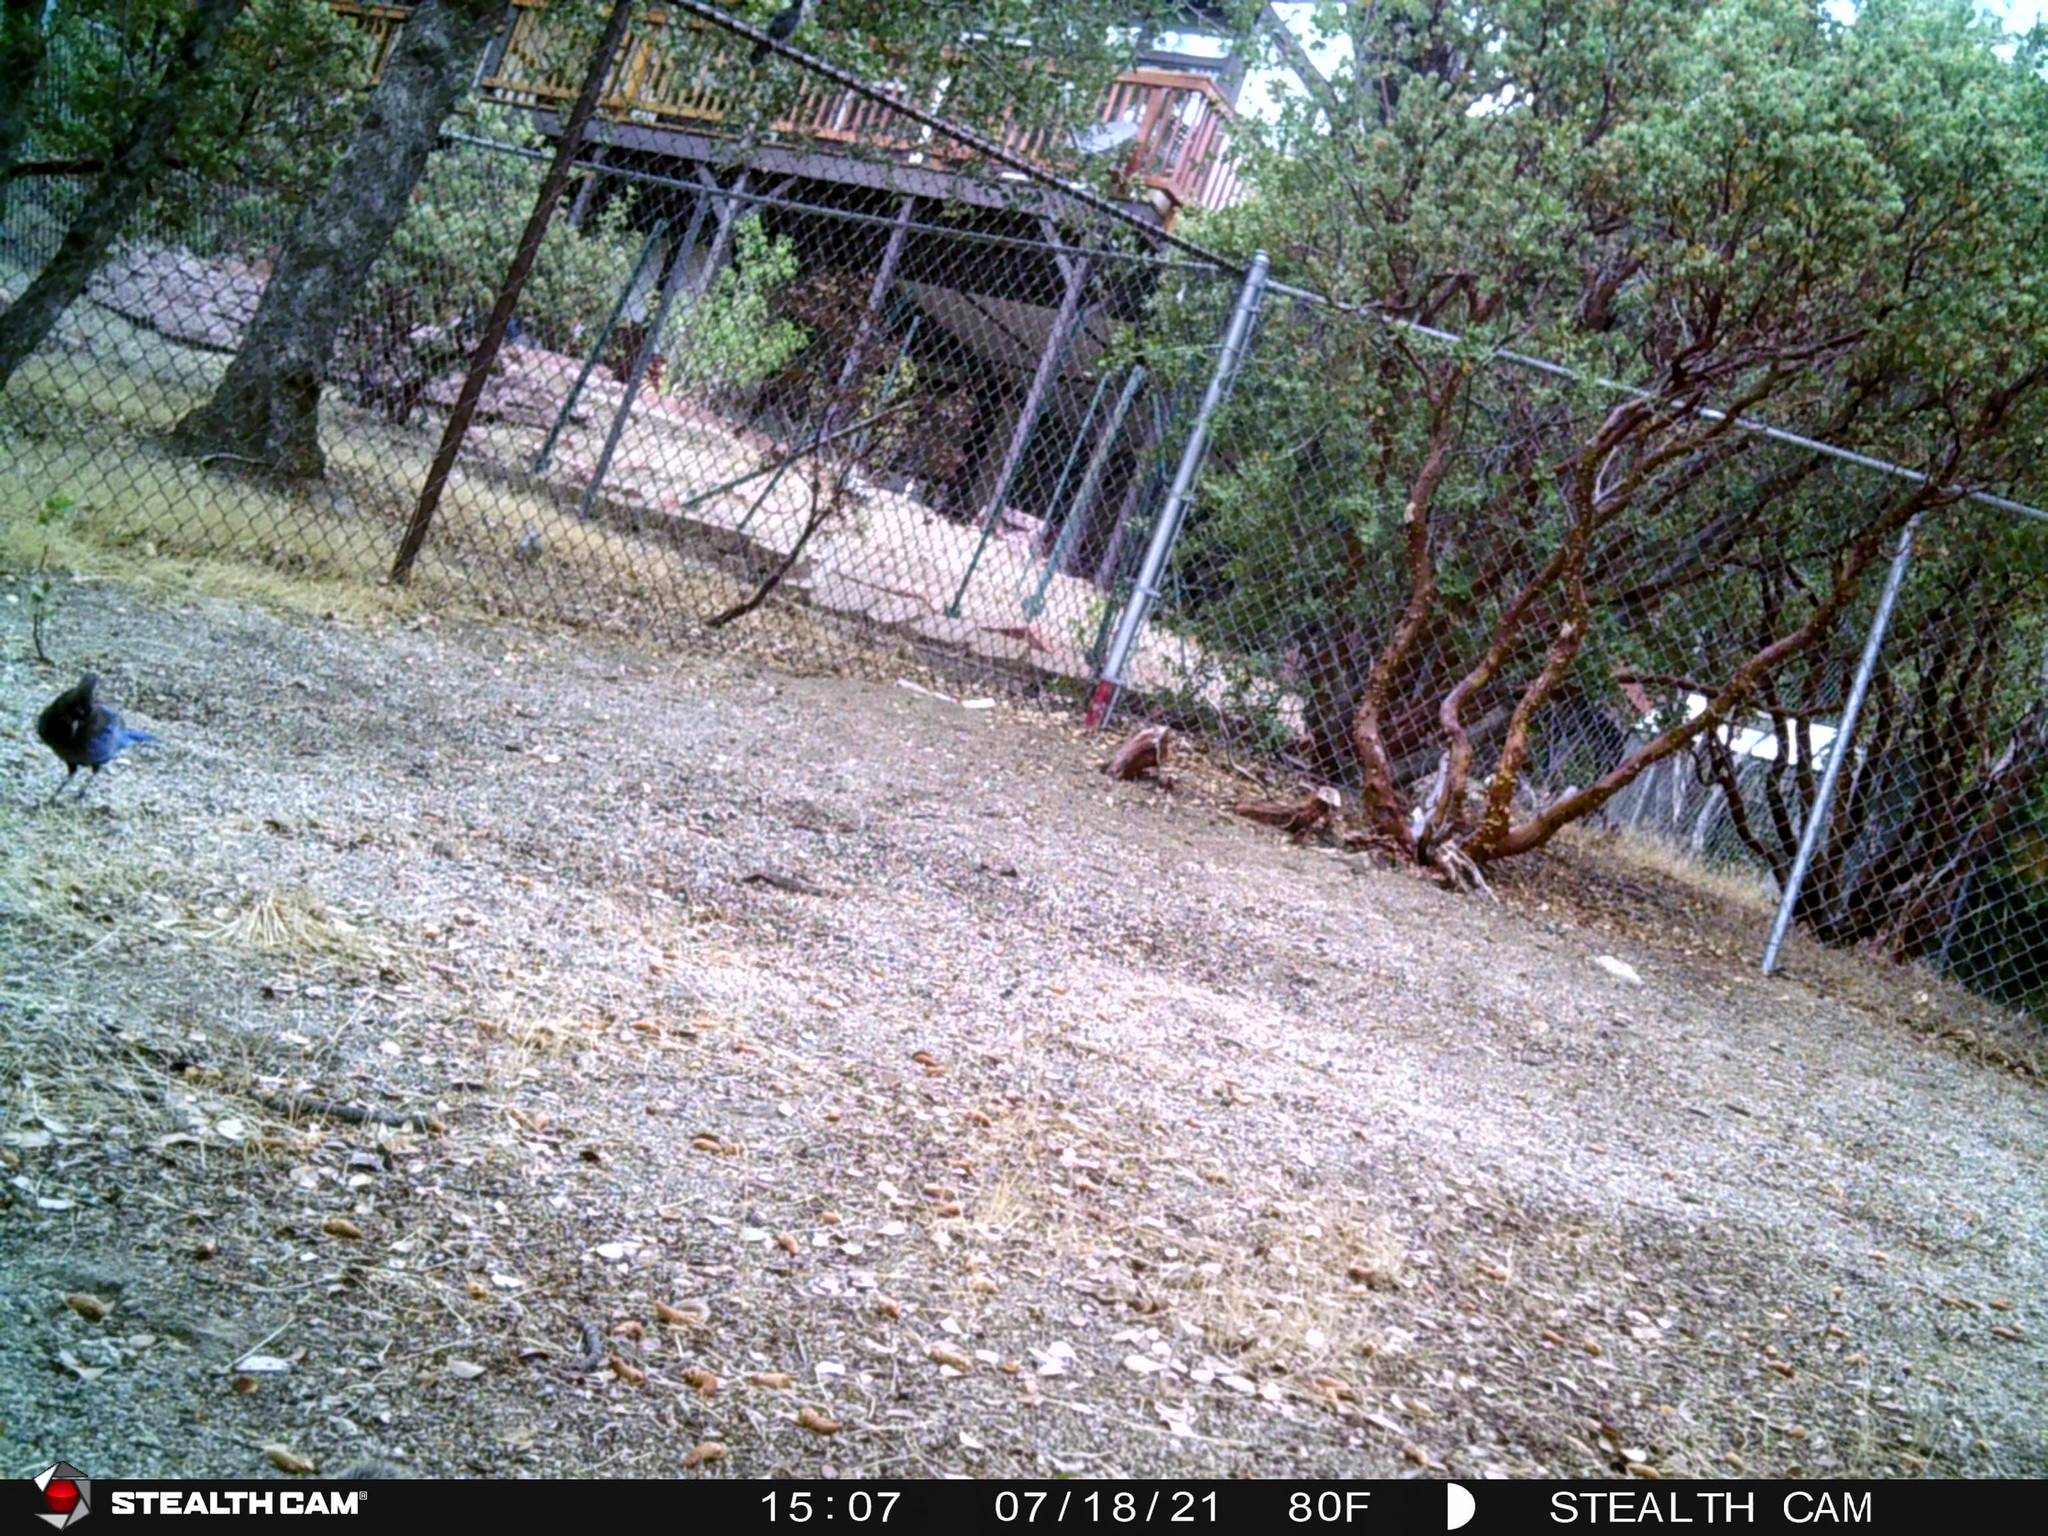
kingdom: Animalia
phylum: Chordata
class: Aves
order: Passeriformes
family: Corvidae
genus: Cyanocitta
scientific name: Cyanocitta stelleri
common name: Steller's jay
